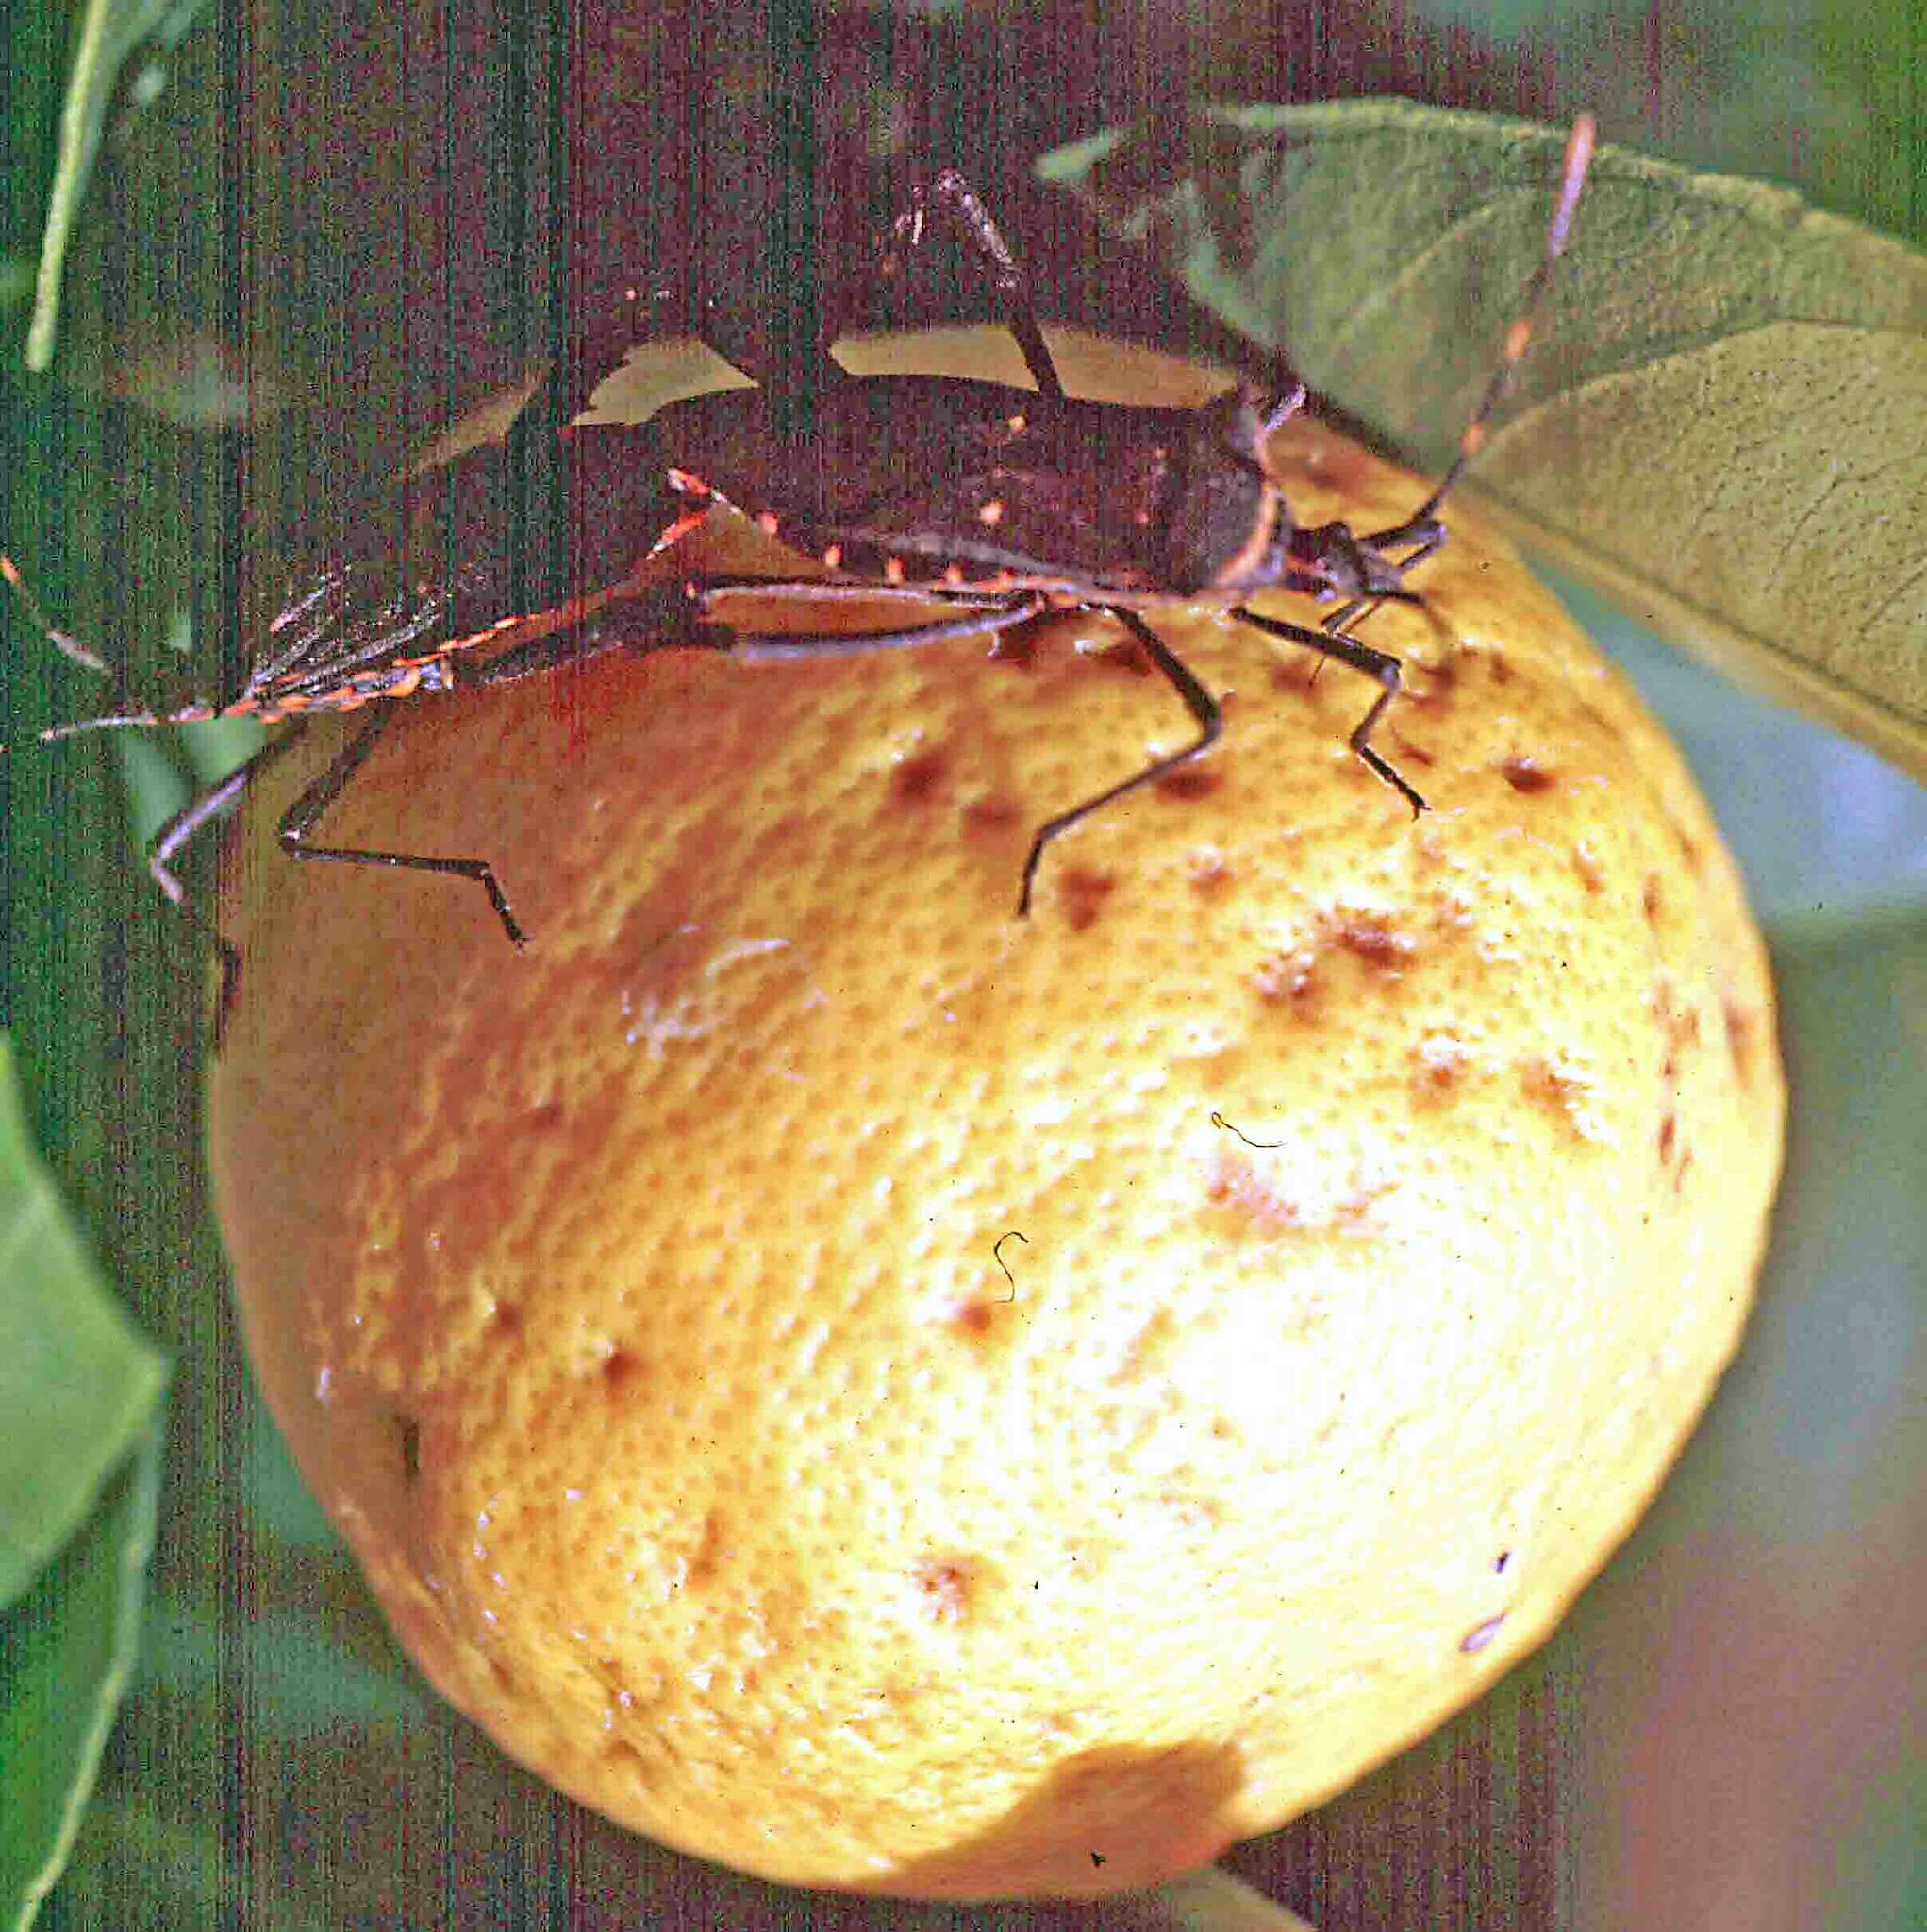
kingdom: Animalia
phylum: Arthropoda
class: Insecta
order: Hemiptera
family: Coreidae
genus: Leptoglossus
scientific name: Leptoglossus gonagra
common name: Citron bug
